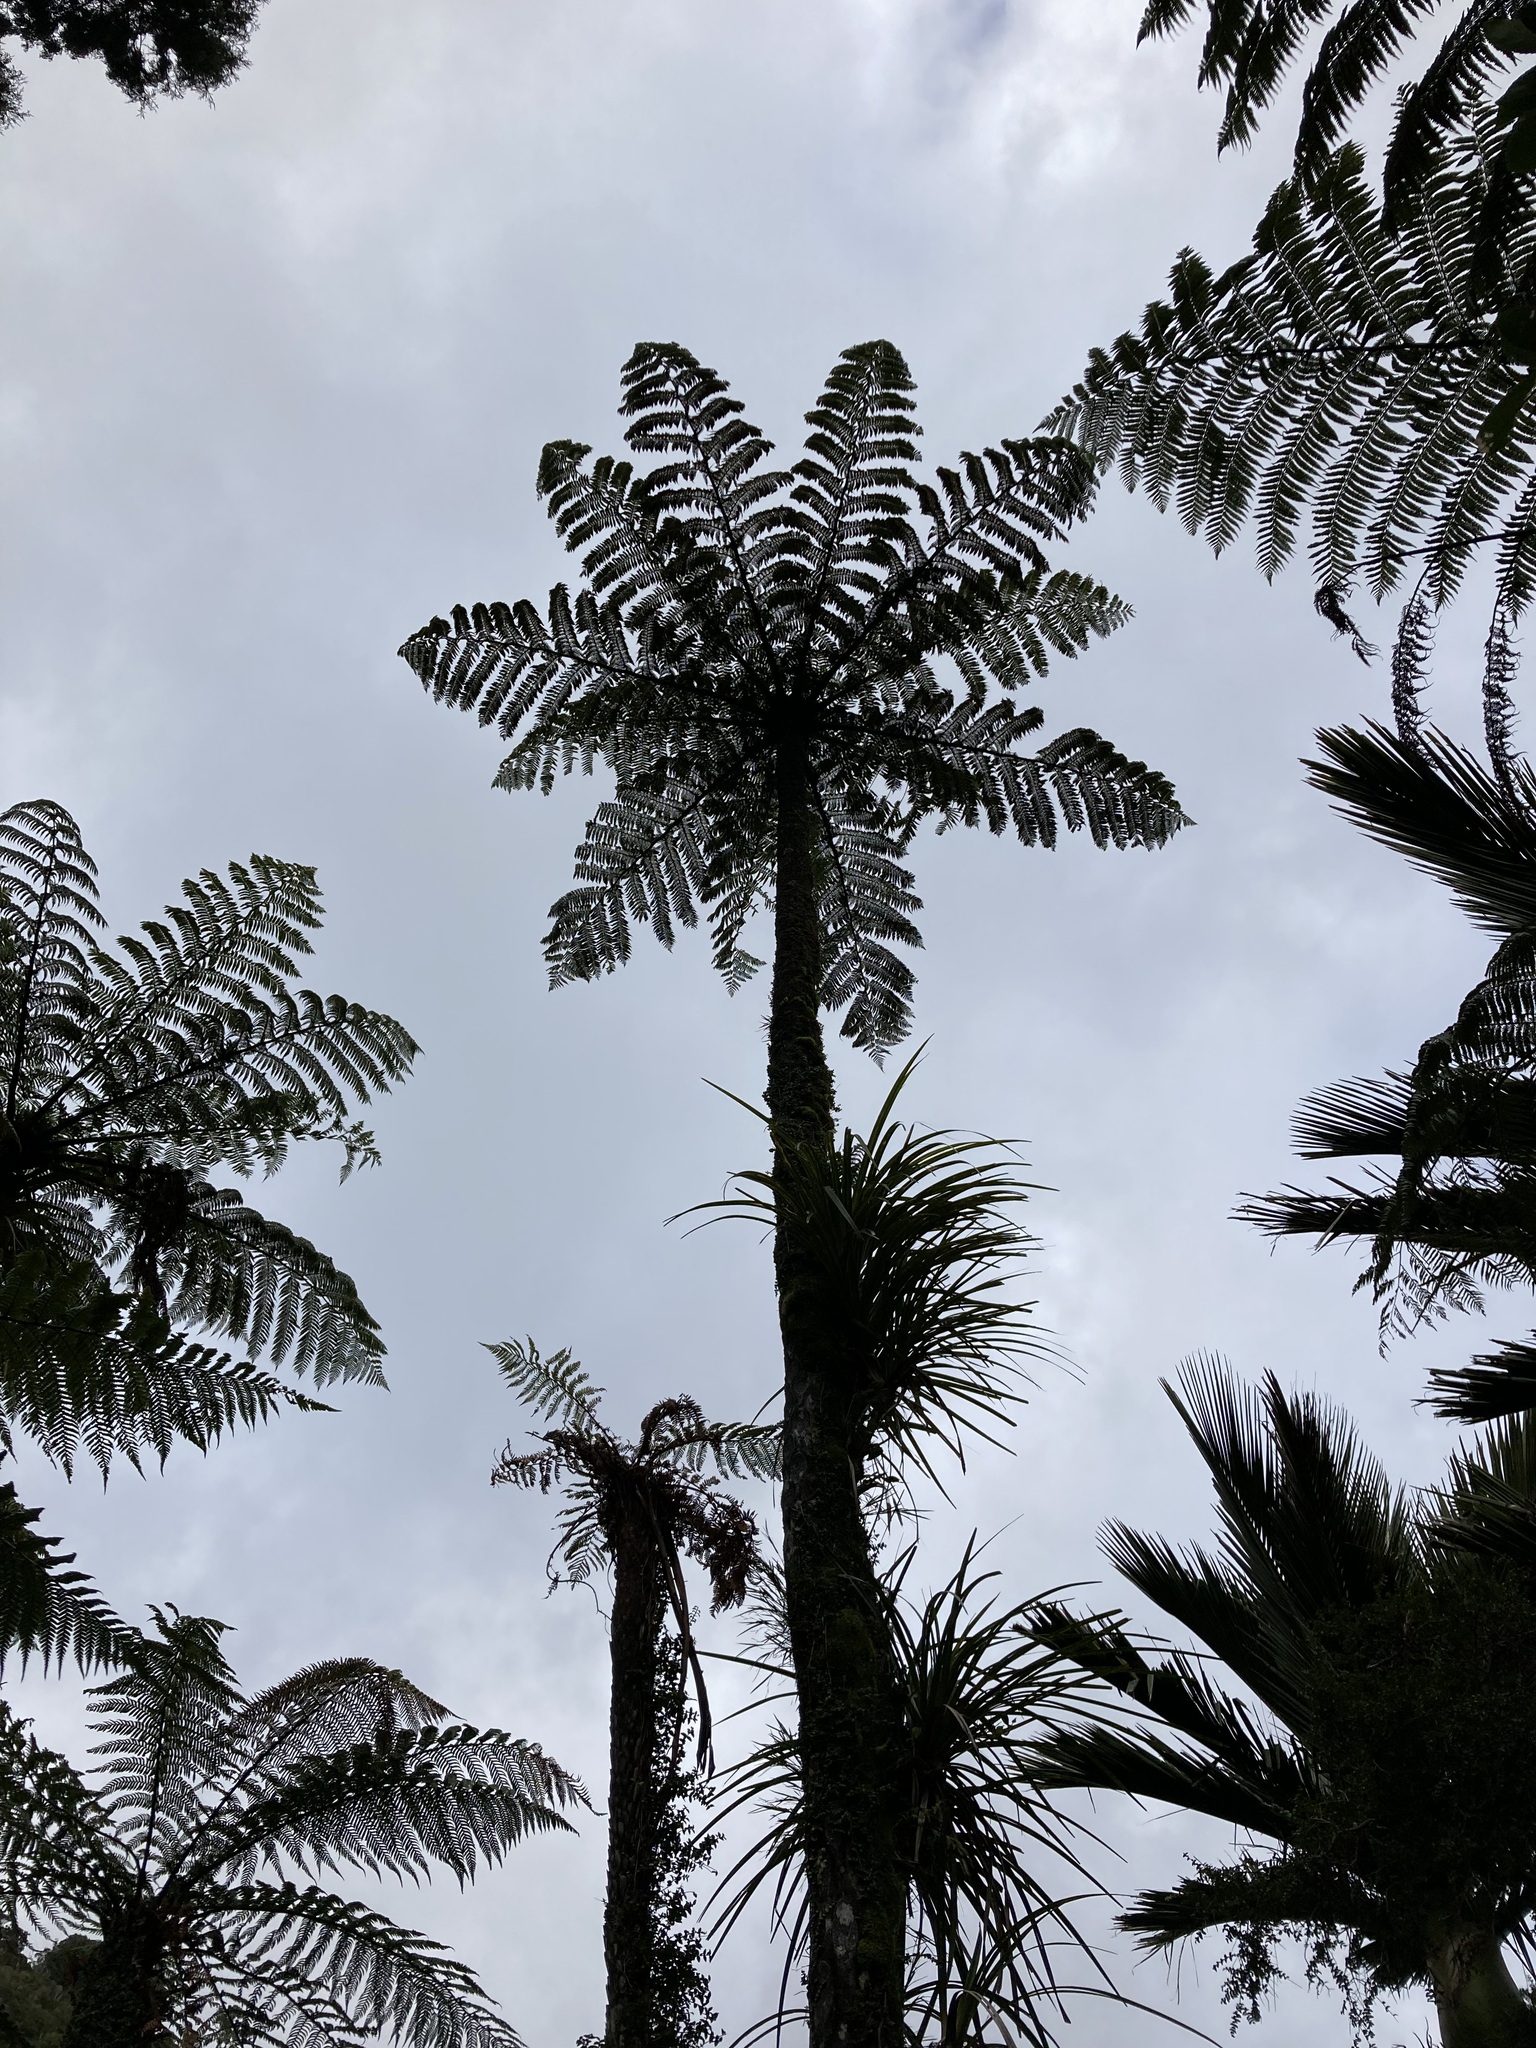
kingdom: Plantae
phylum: Tracheophyta
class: Polypodiopsida
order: Cyatheales
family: Cyatheaceae
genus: Sphaeropteris
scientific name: Sphaeropteris medullaris
